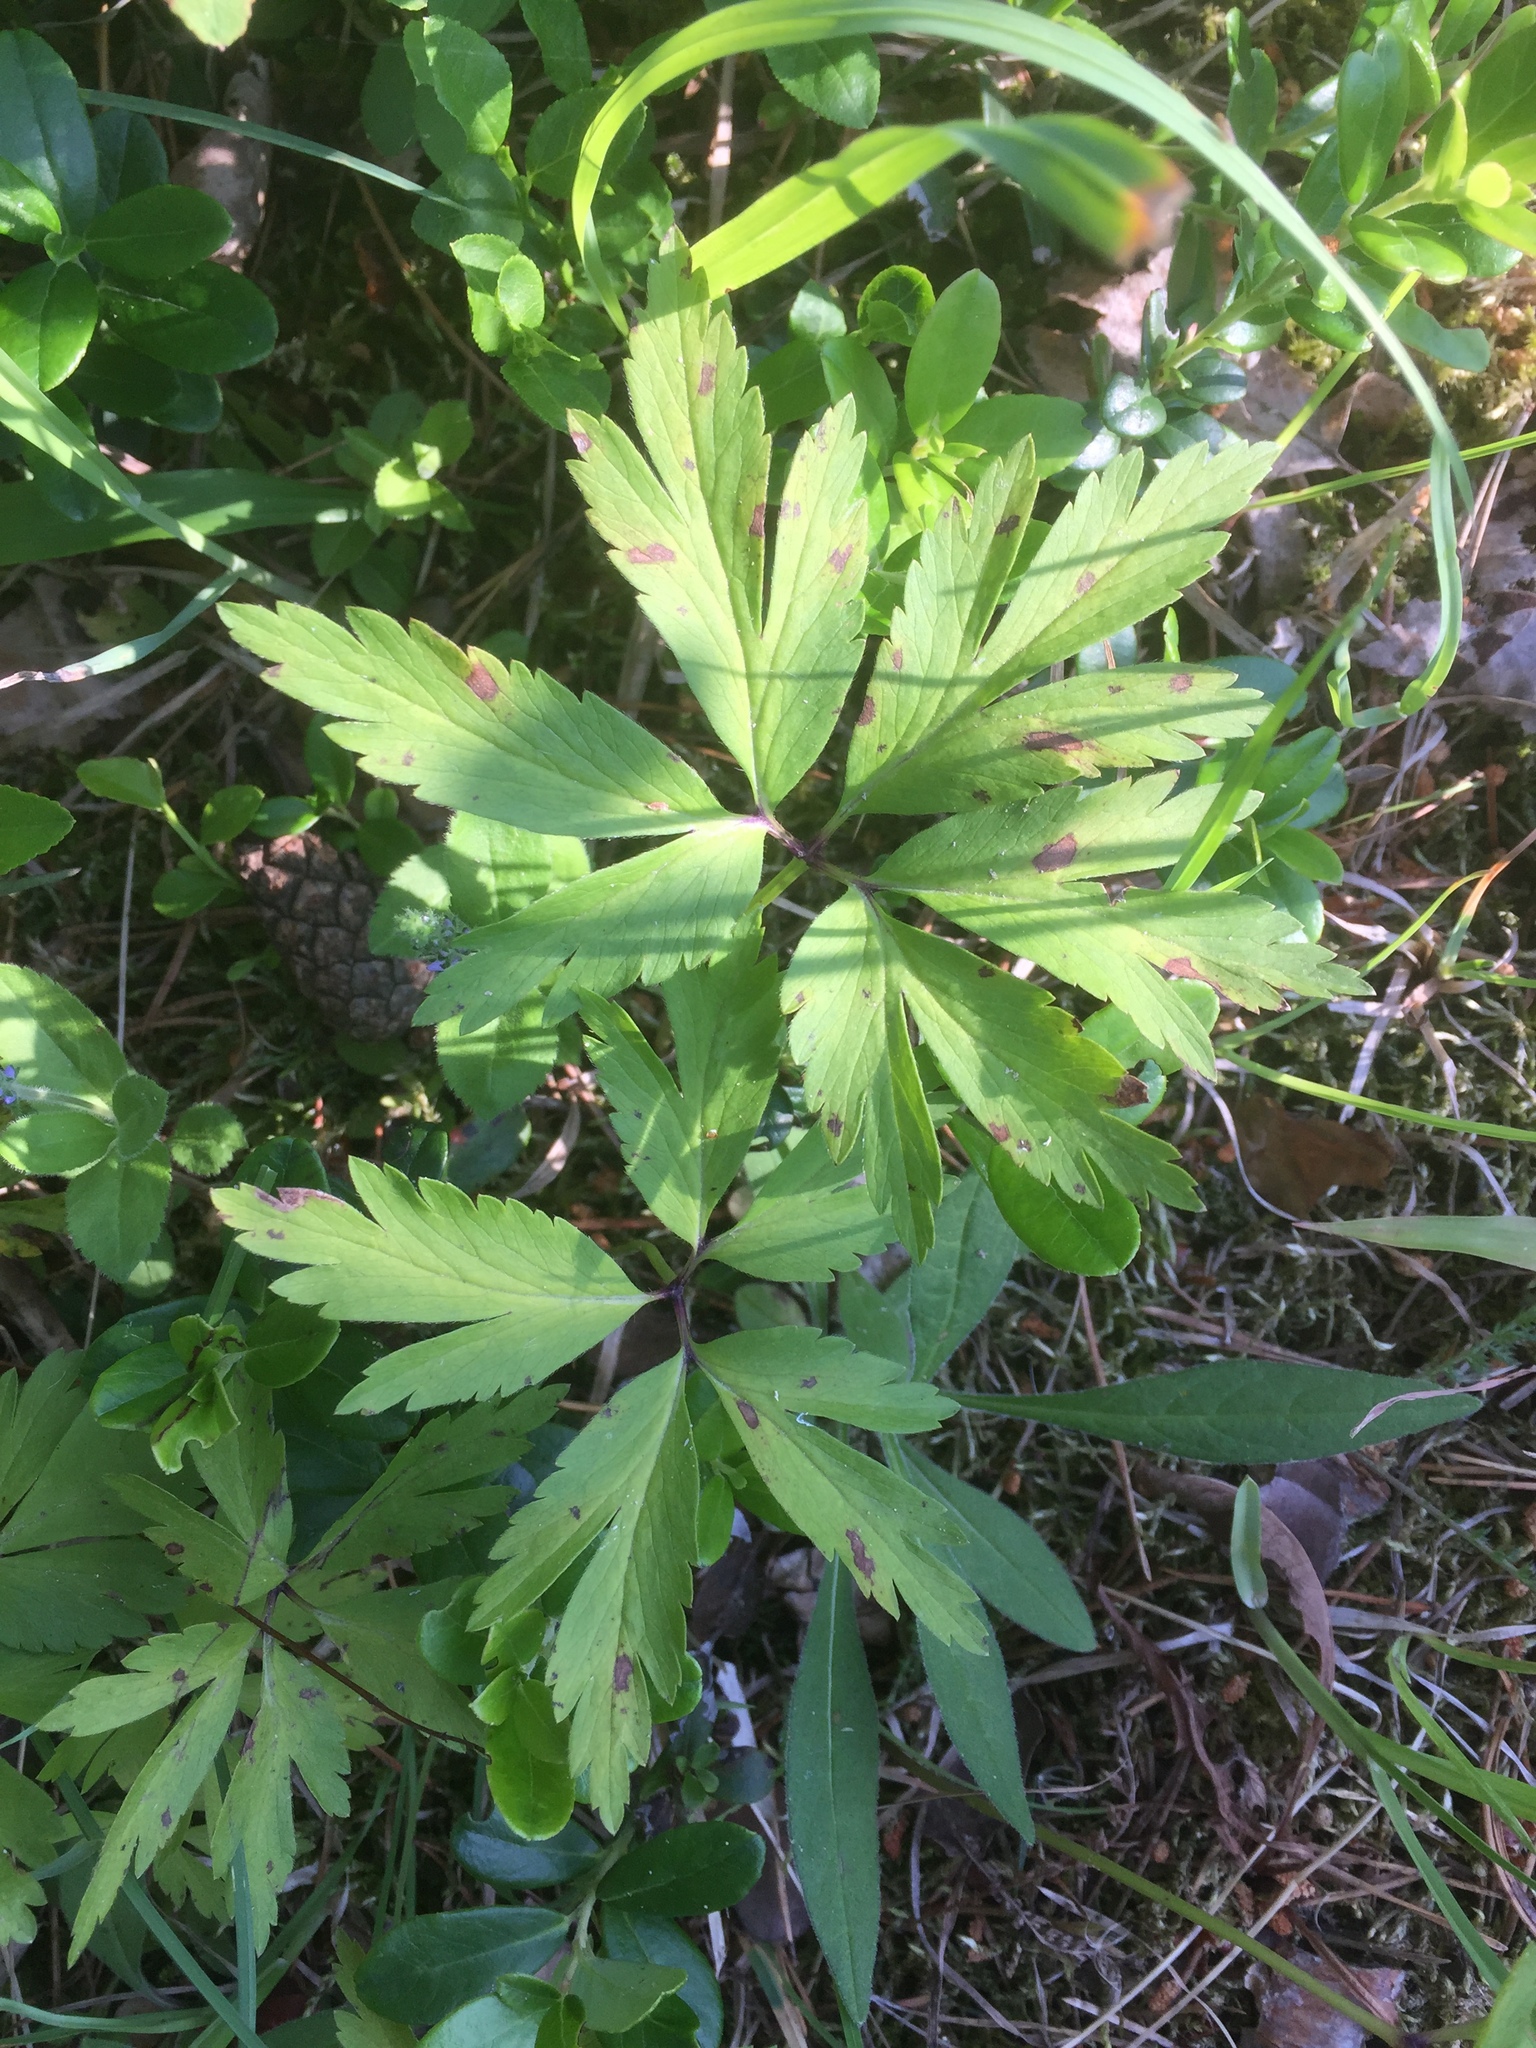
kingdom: Plantae
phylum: Tracheophyta
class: Magnoliopsida
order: Ranunculales
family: Ranunculaceae
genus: Anemone
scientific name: Anemone nemorosa
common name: Wood anemone
